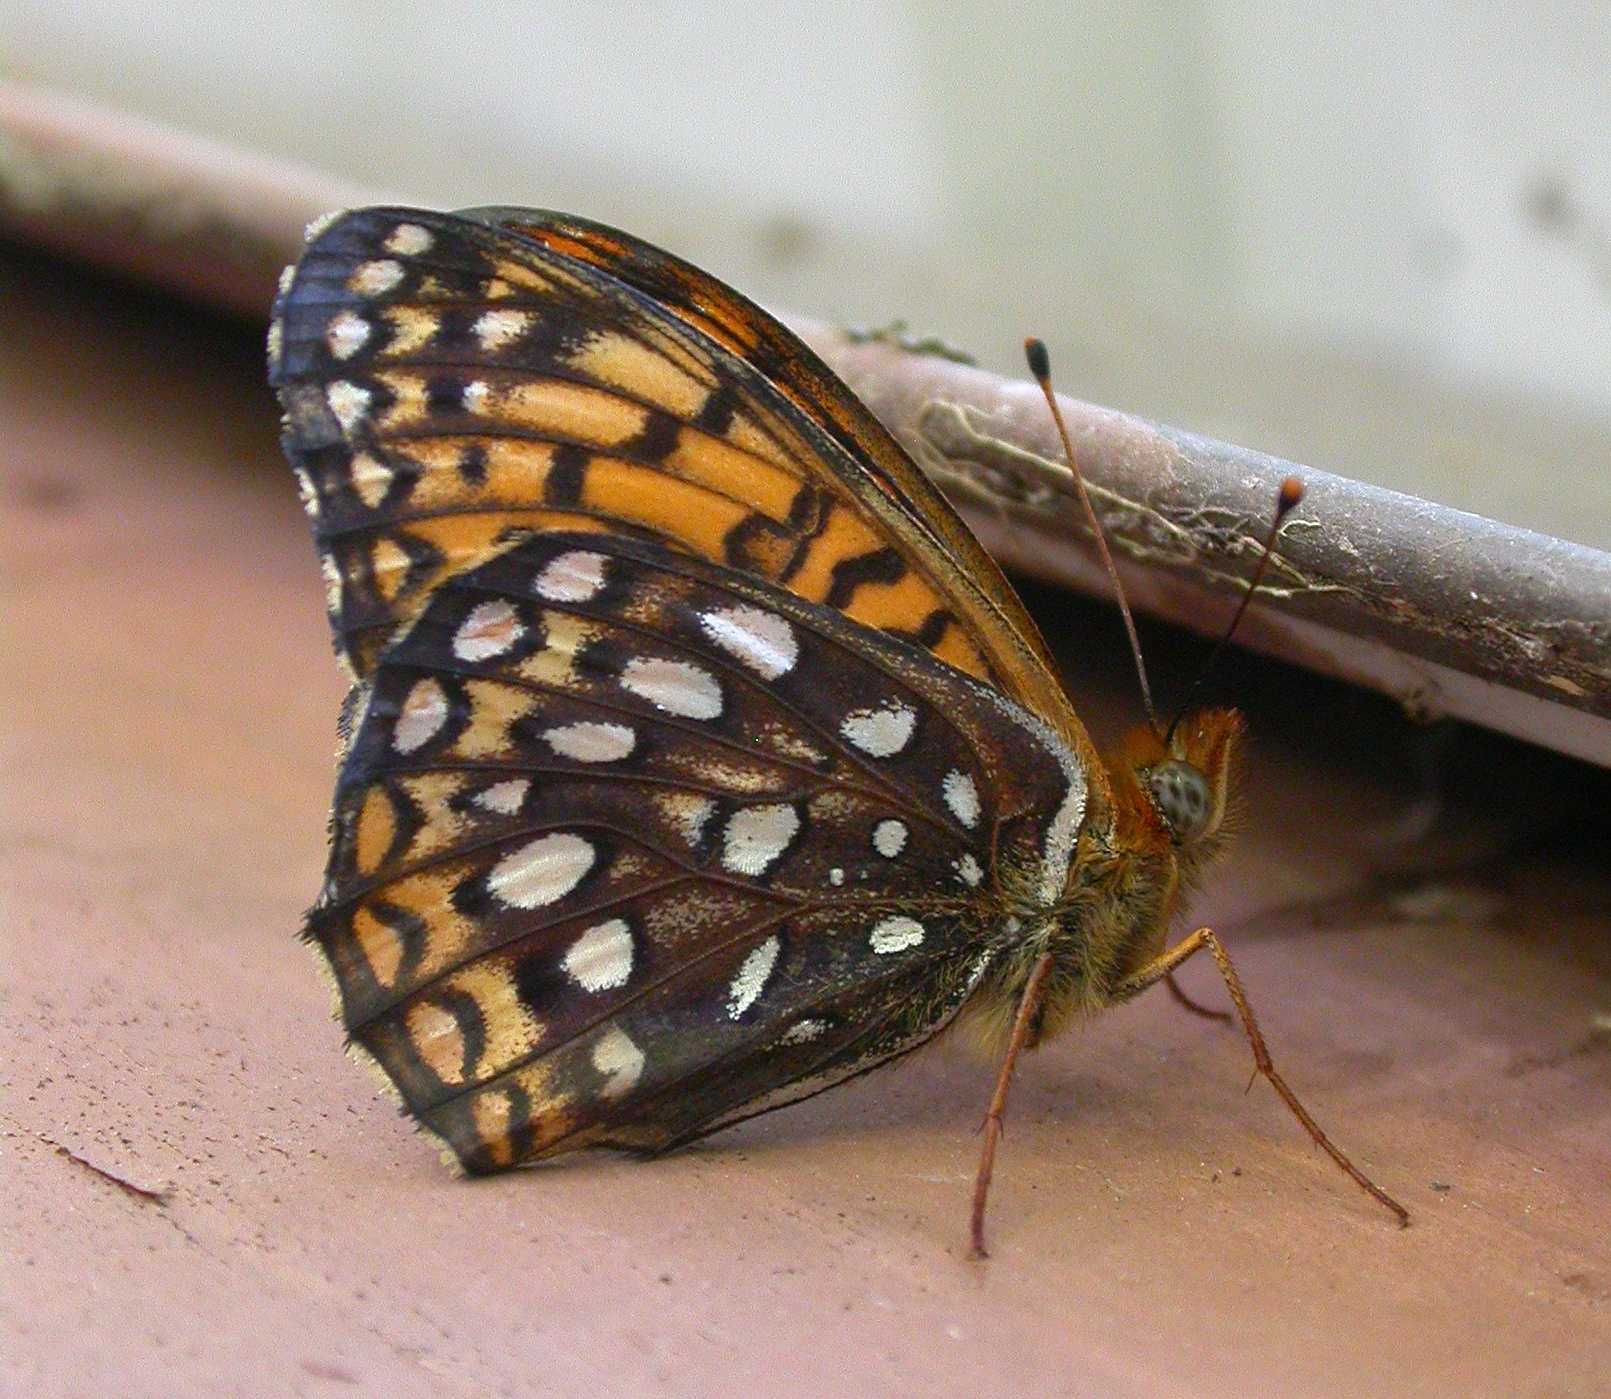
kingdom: Animalia
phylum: Arthropoda
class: Insecta
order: Lepidoptera
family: Nymphalidae
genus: Speyeria
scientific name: Speyeria atlantis
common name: Atlantis fritillary
